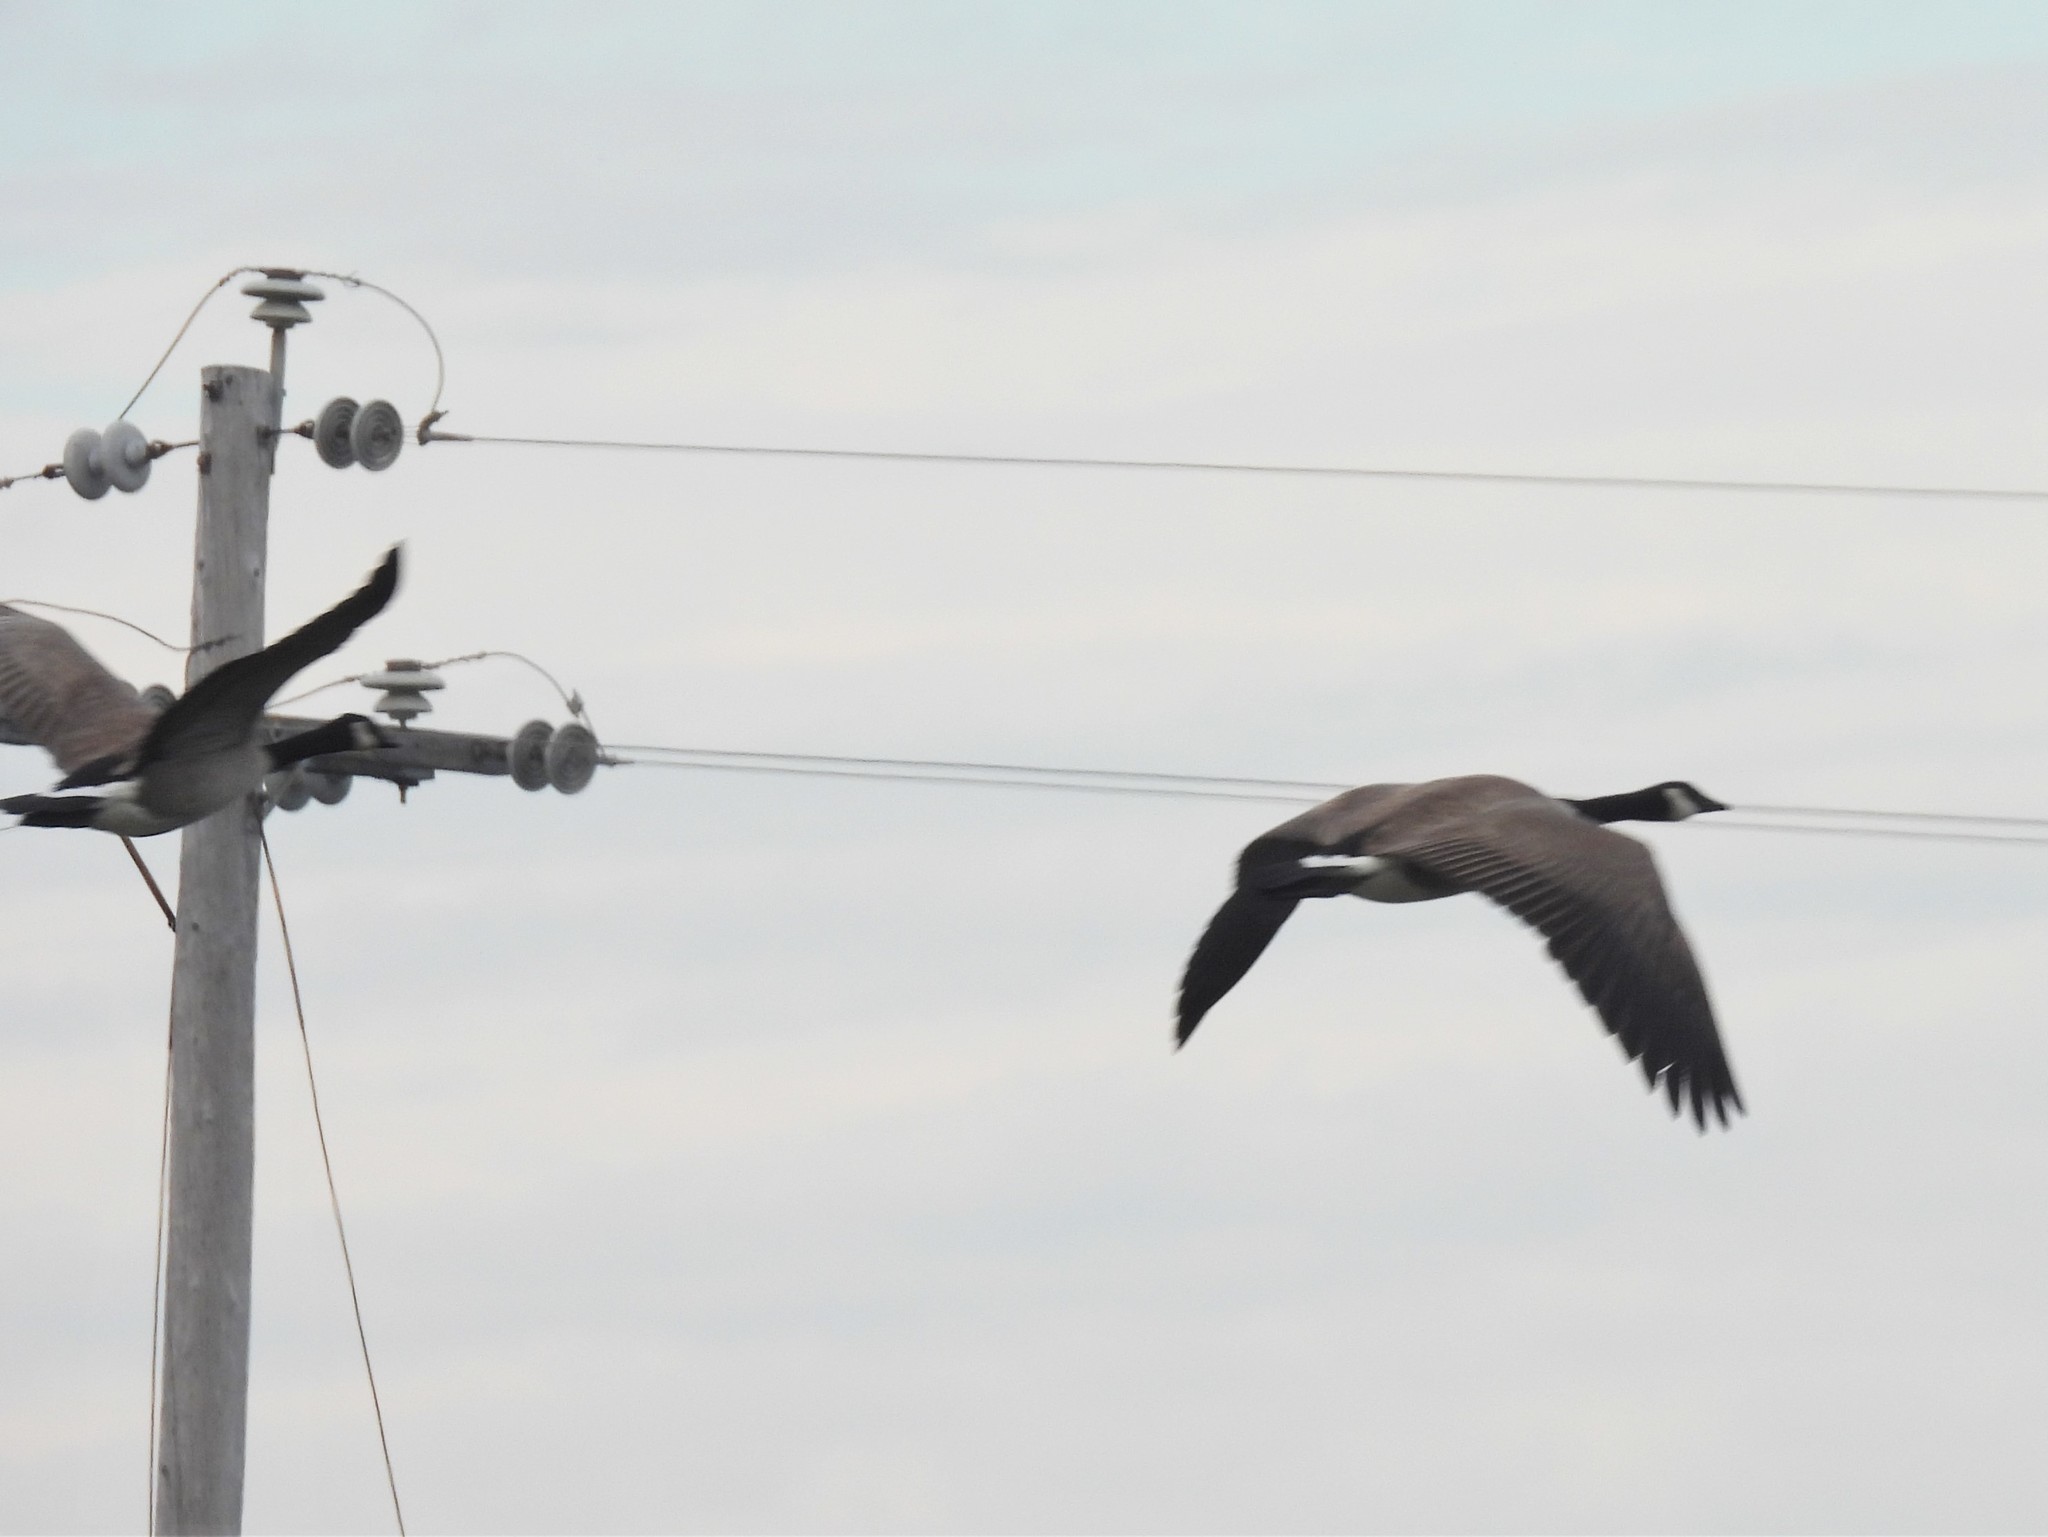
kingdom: Animalia
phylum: Chordata
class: Aves
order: Anseriformes
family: Anatidae
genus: Branta
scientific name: Branta canadensis
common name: Canada goose
